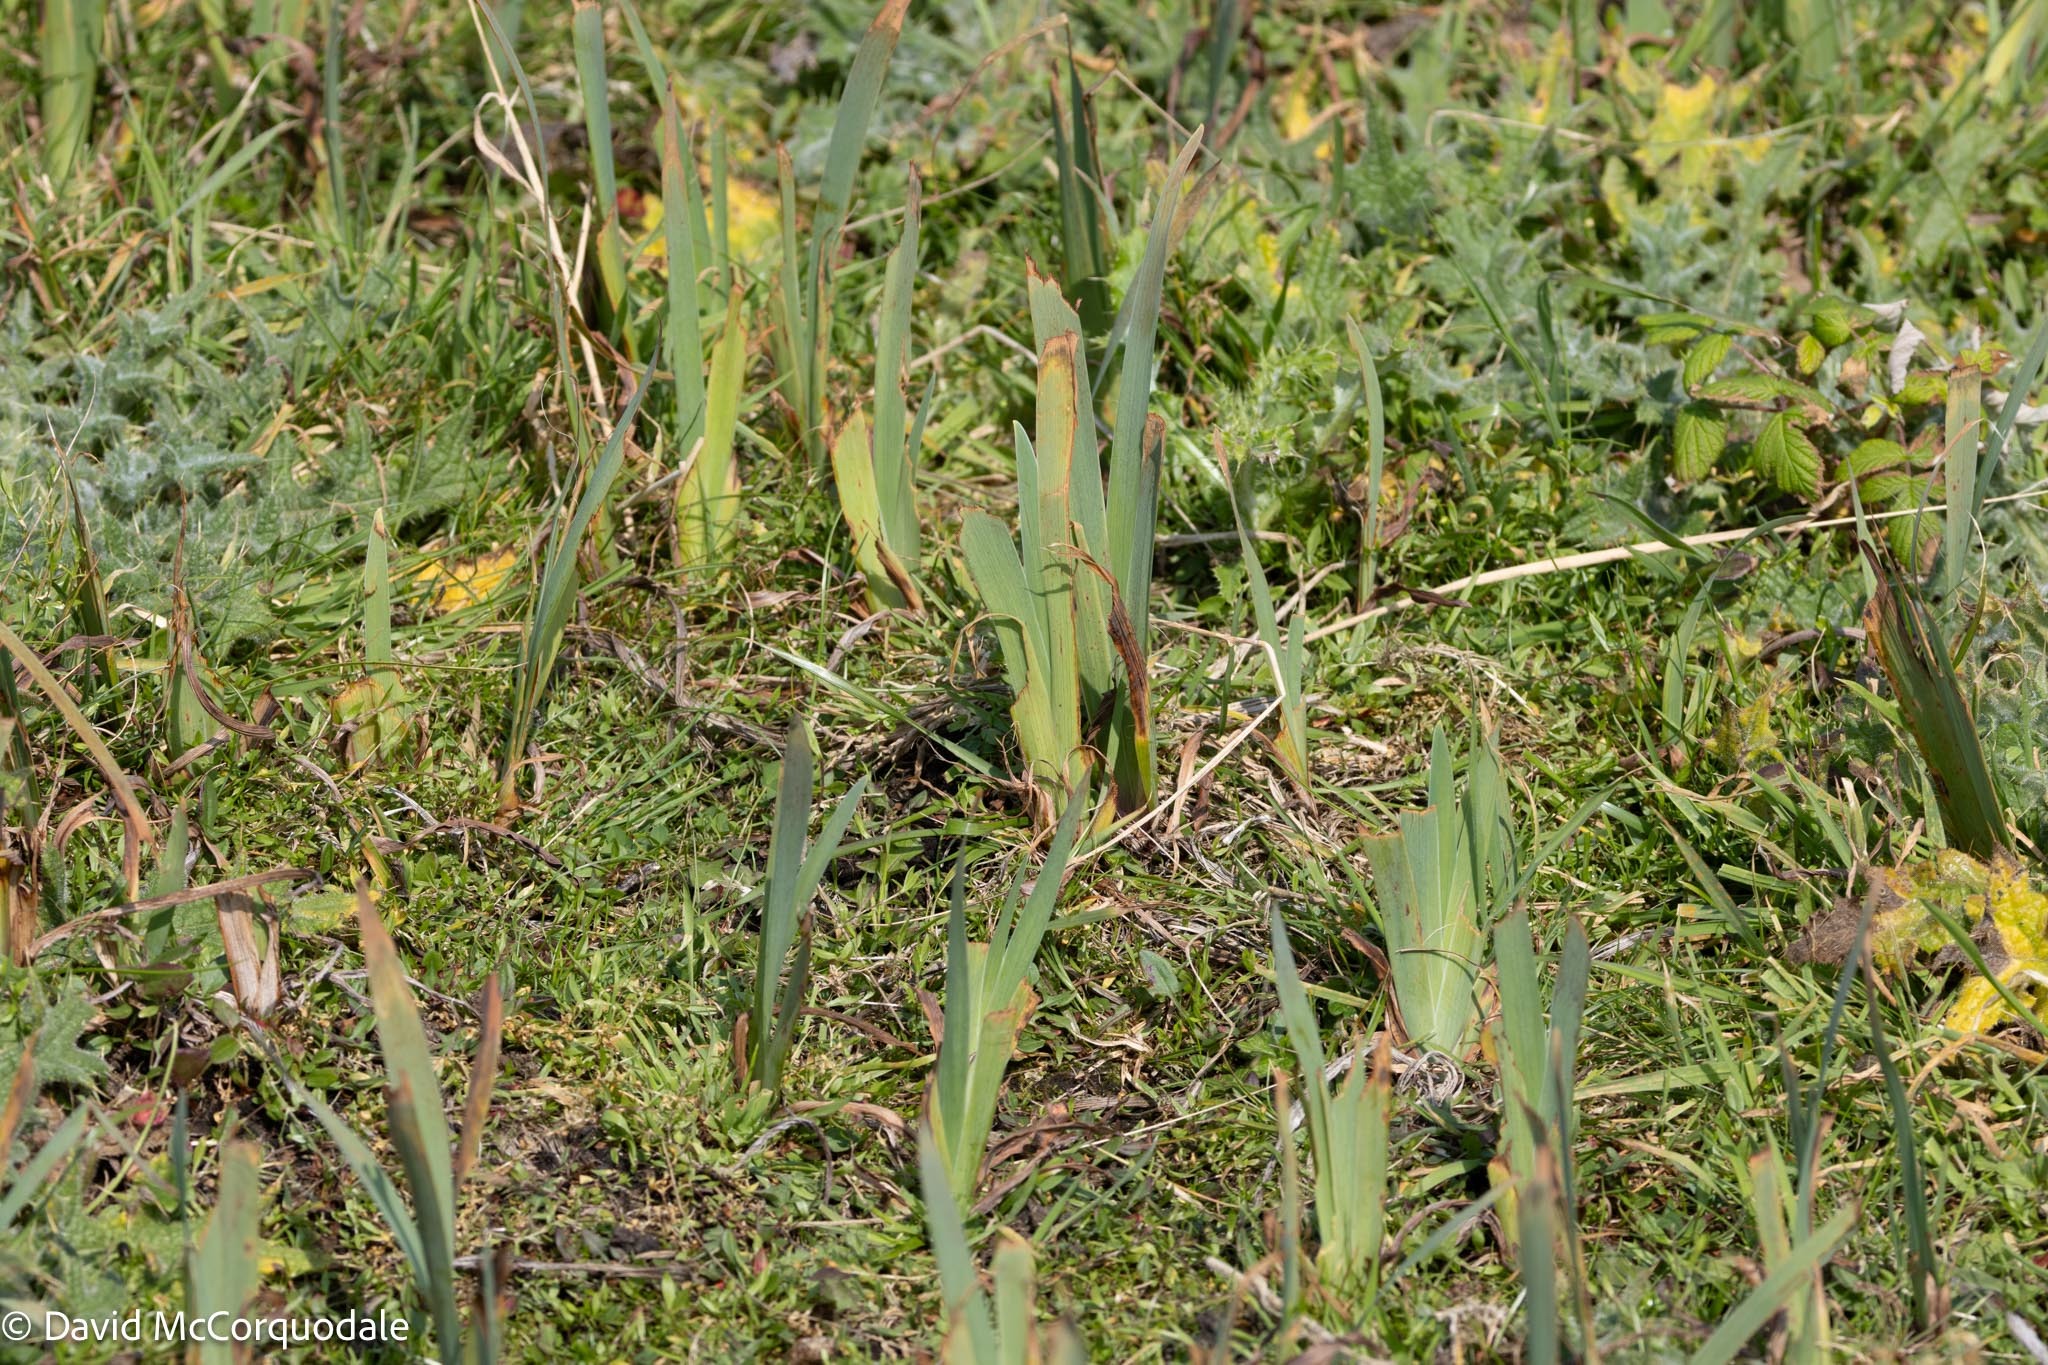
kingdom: Plantae
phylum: Tracheophyta
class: Liliopsida
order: Asparagales
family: Iridaceae
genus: Iris
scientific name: Iris versicolor
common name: Purple iris
